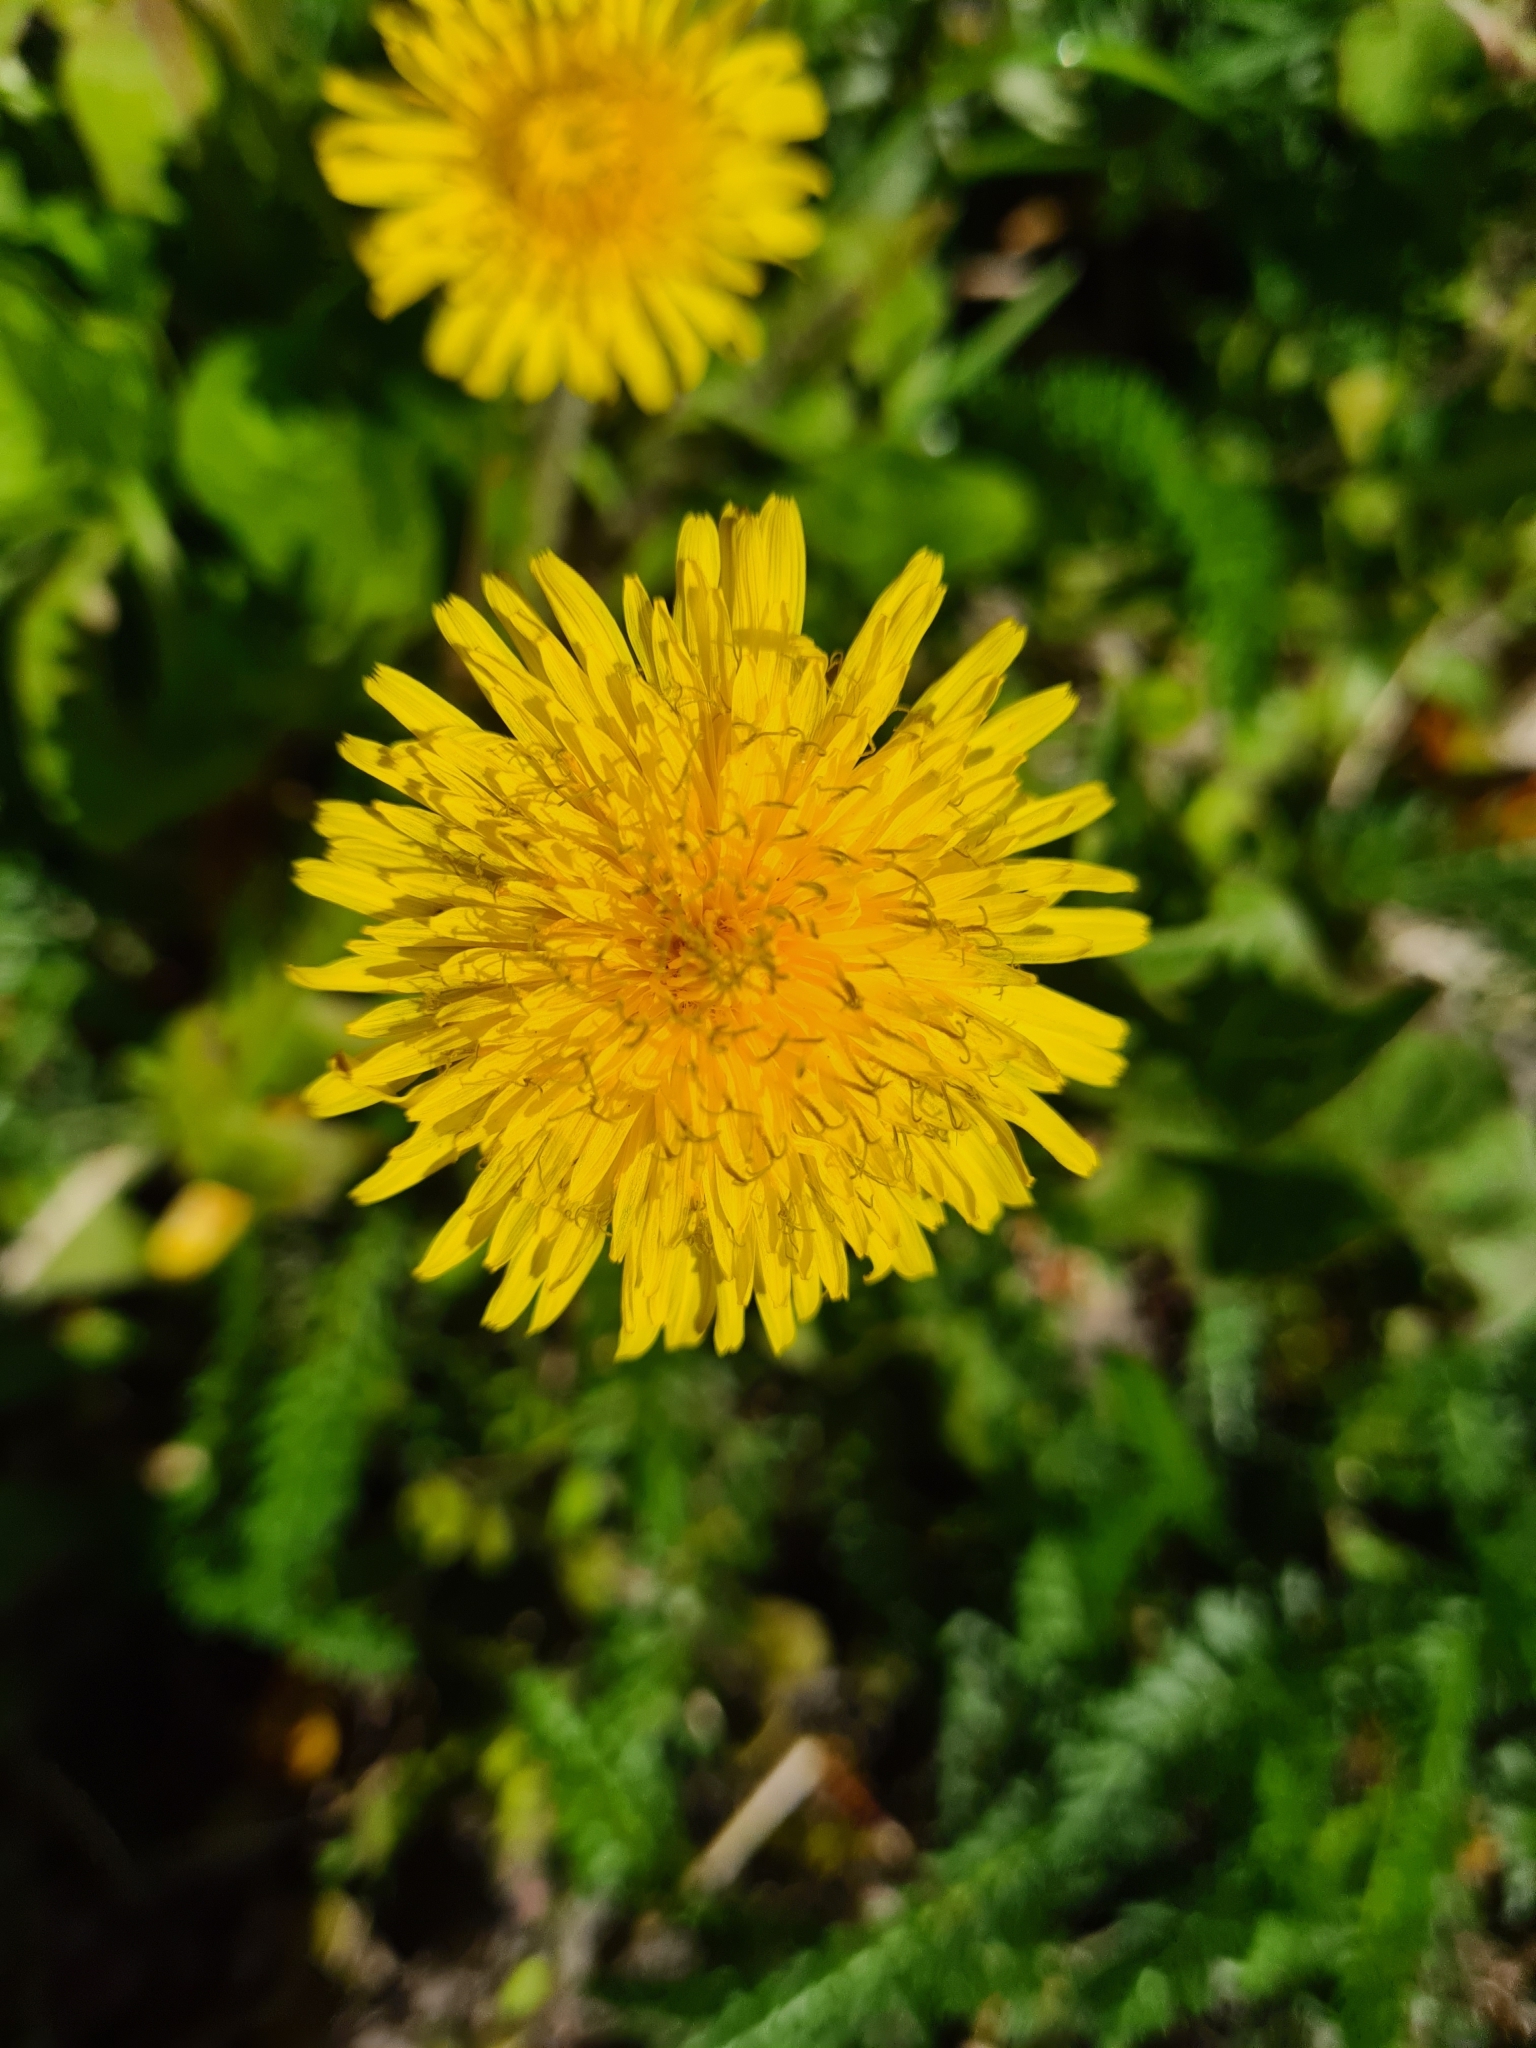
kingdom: Plantae
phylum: Tracheophyta
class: Magnoliopsida
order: Asterales
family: Asteraceae
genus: Taraxacum
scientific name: Taraxacum officinale
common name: Common dandelion
